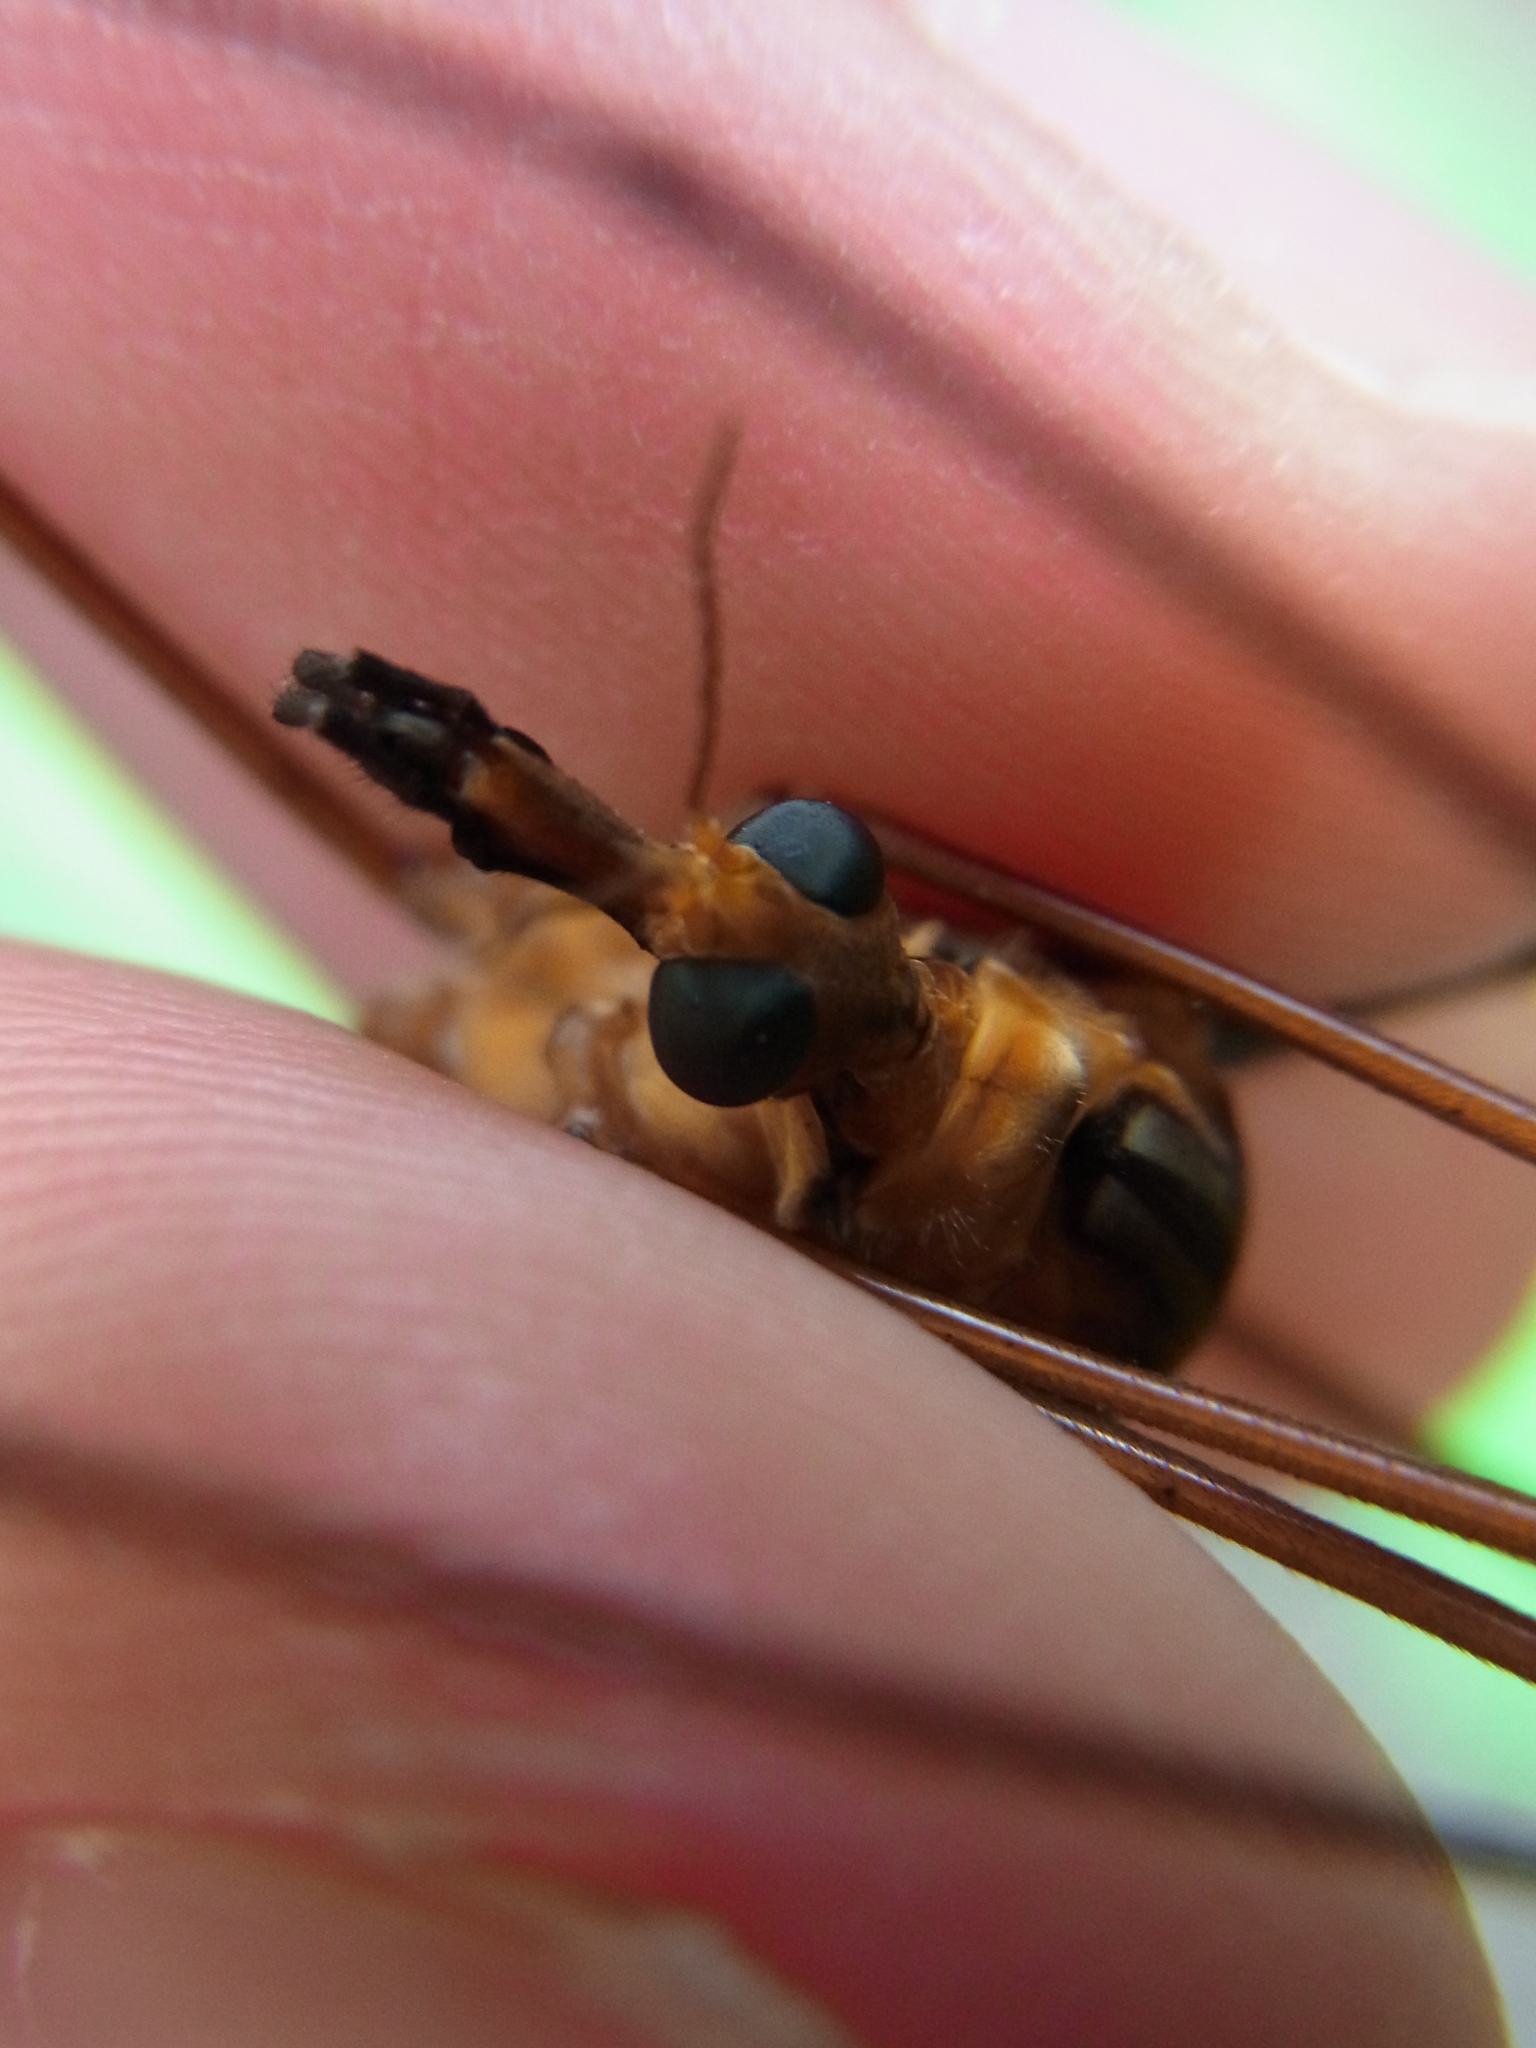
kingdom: Animalia
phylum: Arthropoda
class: Insecta
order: Diptera
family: Tipulidae
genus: Holorusia
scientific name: Holorusia mikado
